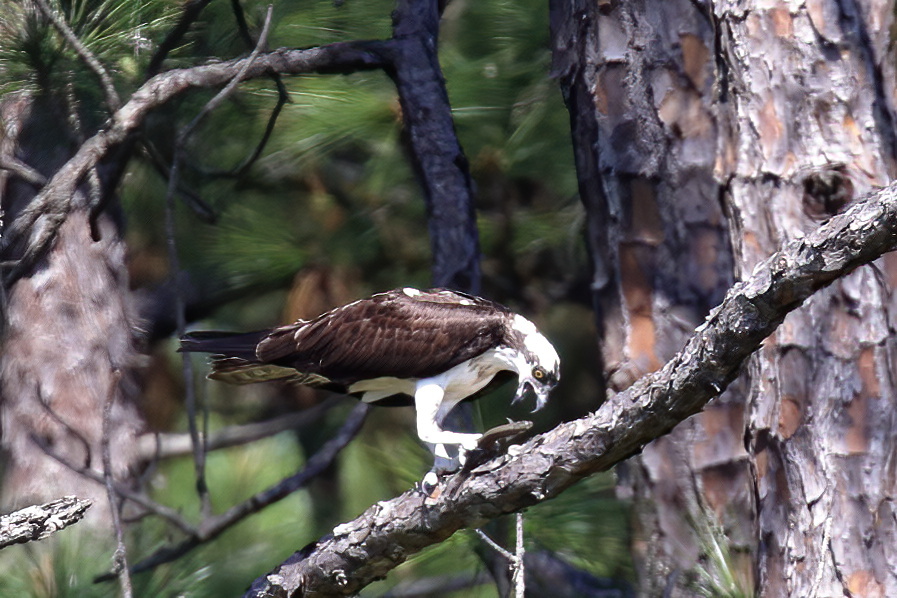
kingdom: Animalia
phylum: Chordata
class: Aves
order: Accipitriformes
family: Pandionidae
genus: Pandion
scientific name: Pandion haliaetus
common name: Osprey
